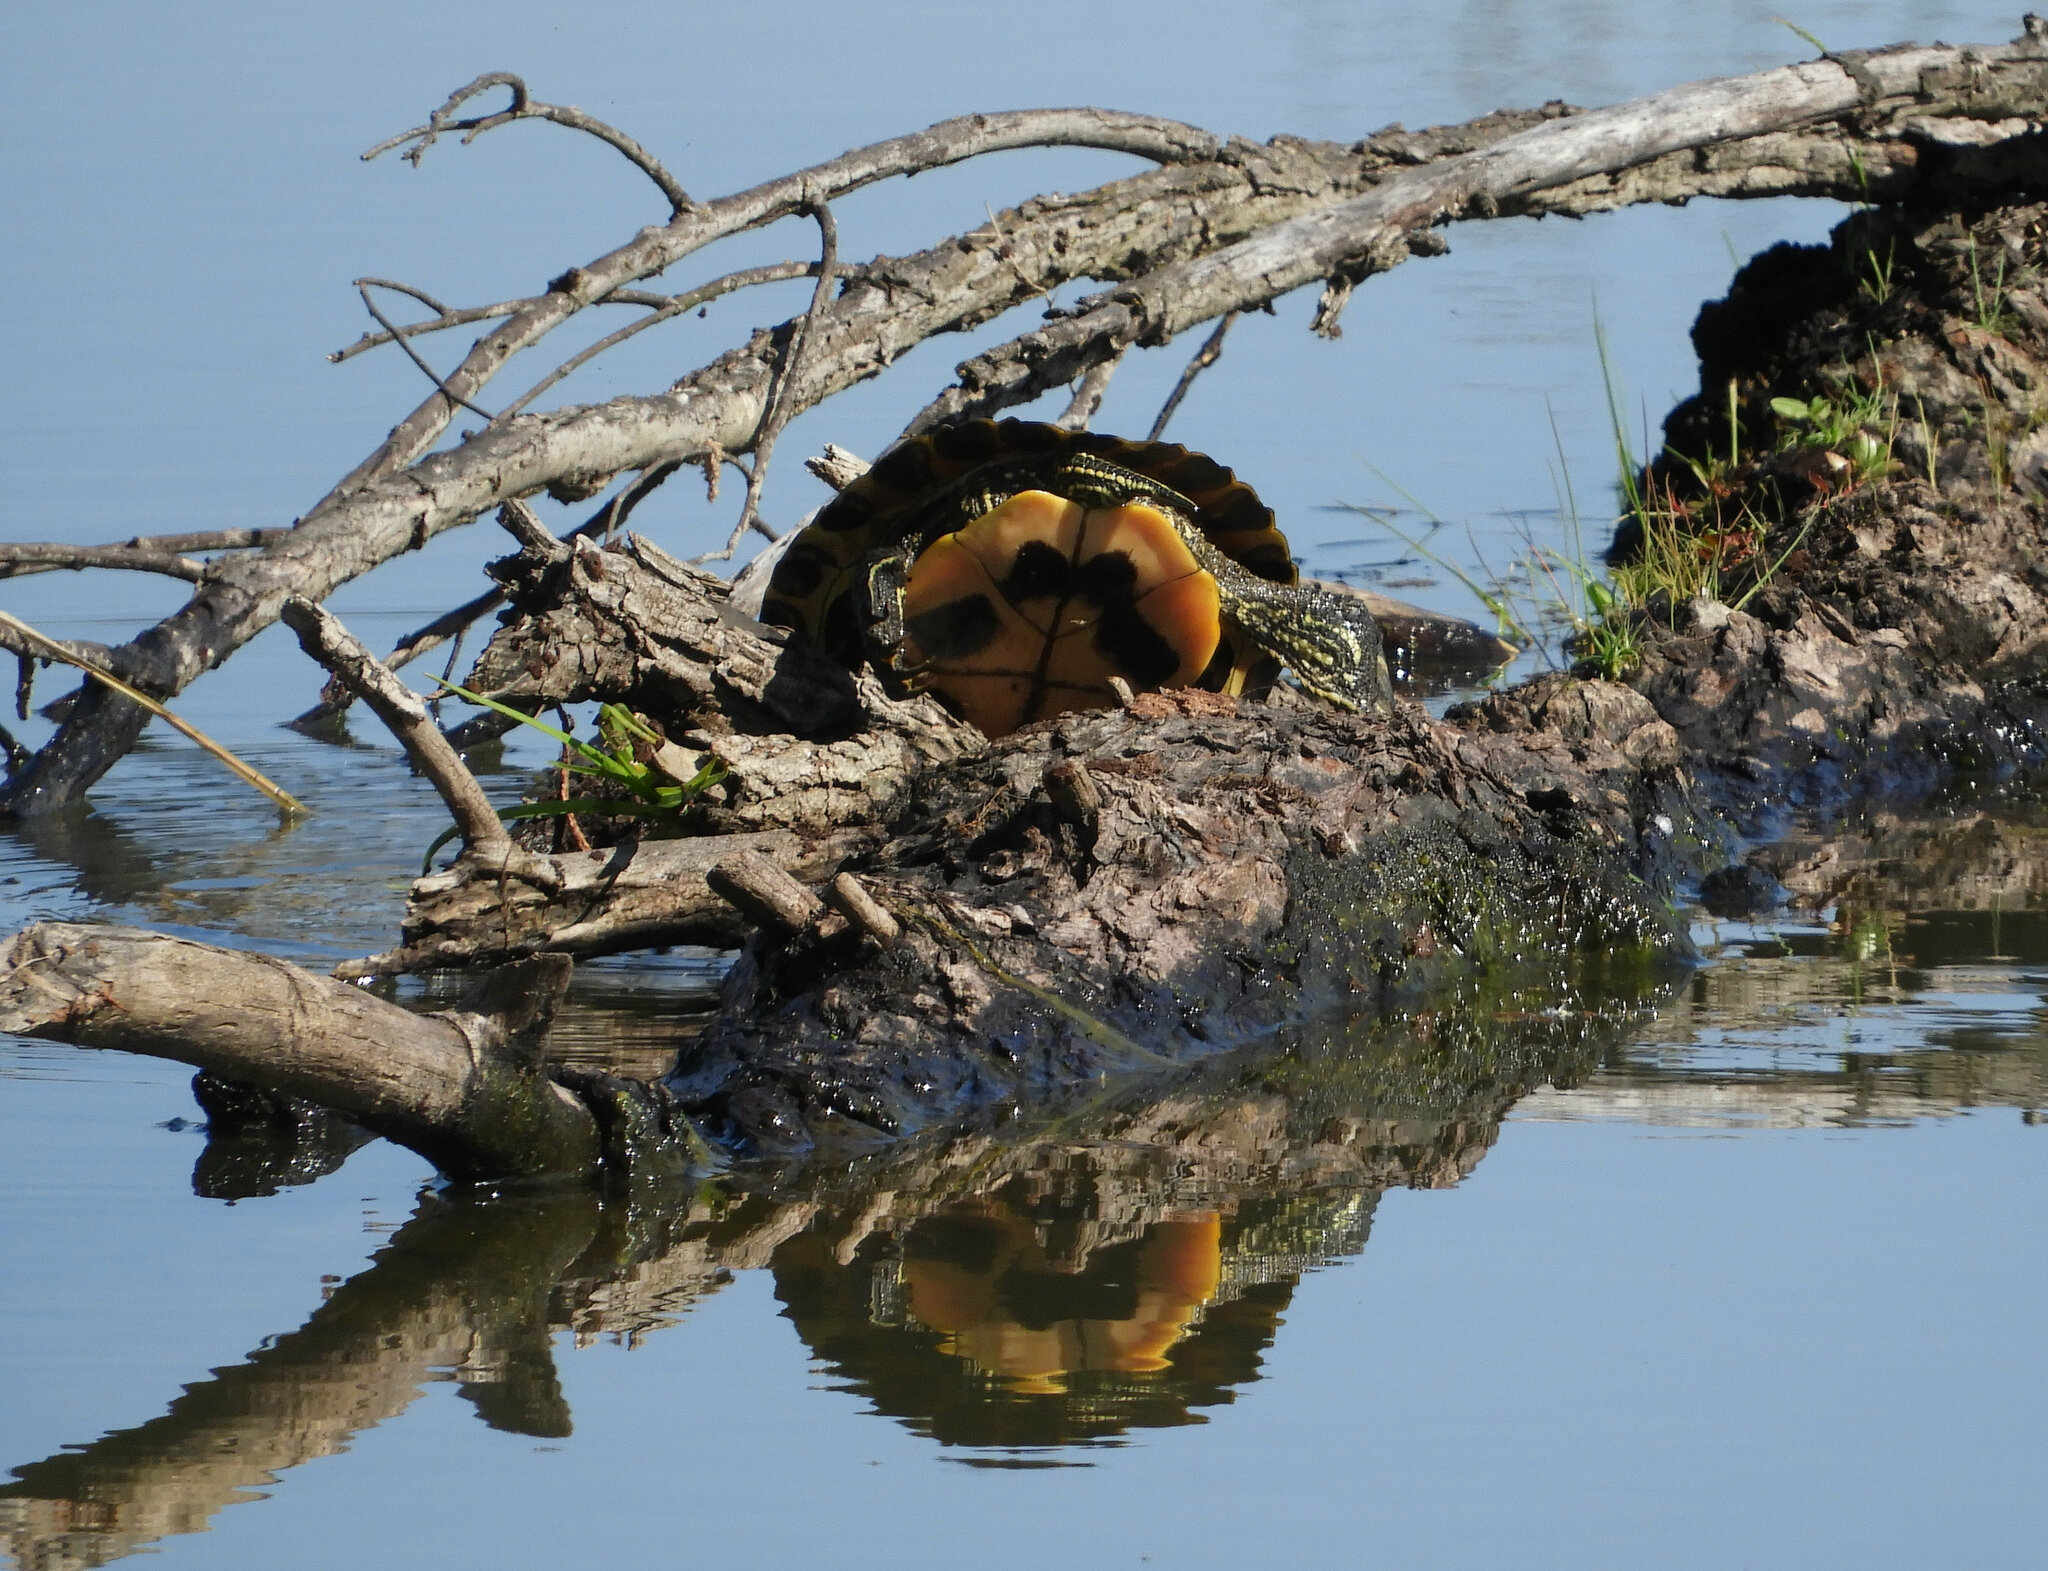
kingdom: Animalia
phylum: Chordata
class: Testudines
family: Emydidae
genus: Trachemys
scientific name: Trachemys scripta
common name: Slider
